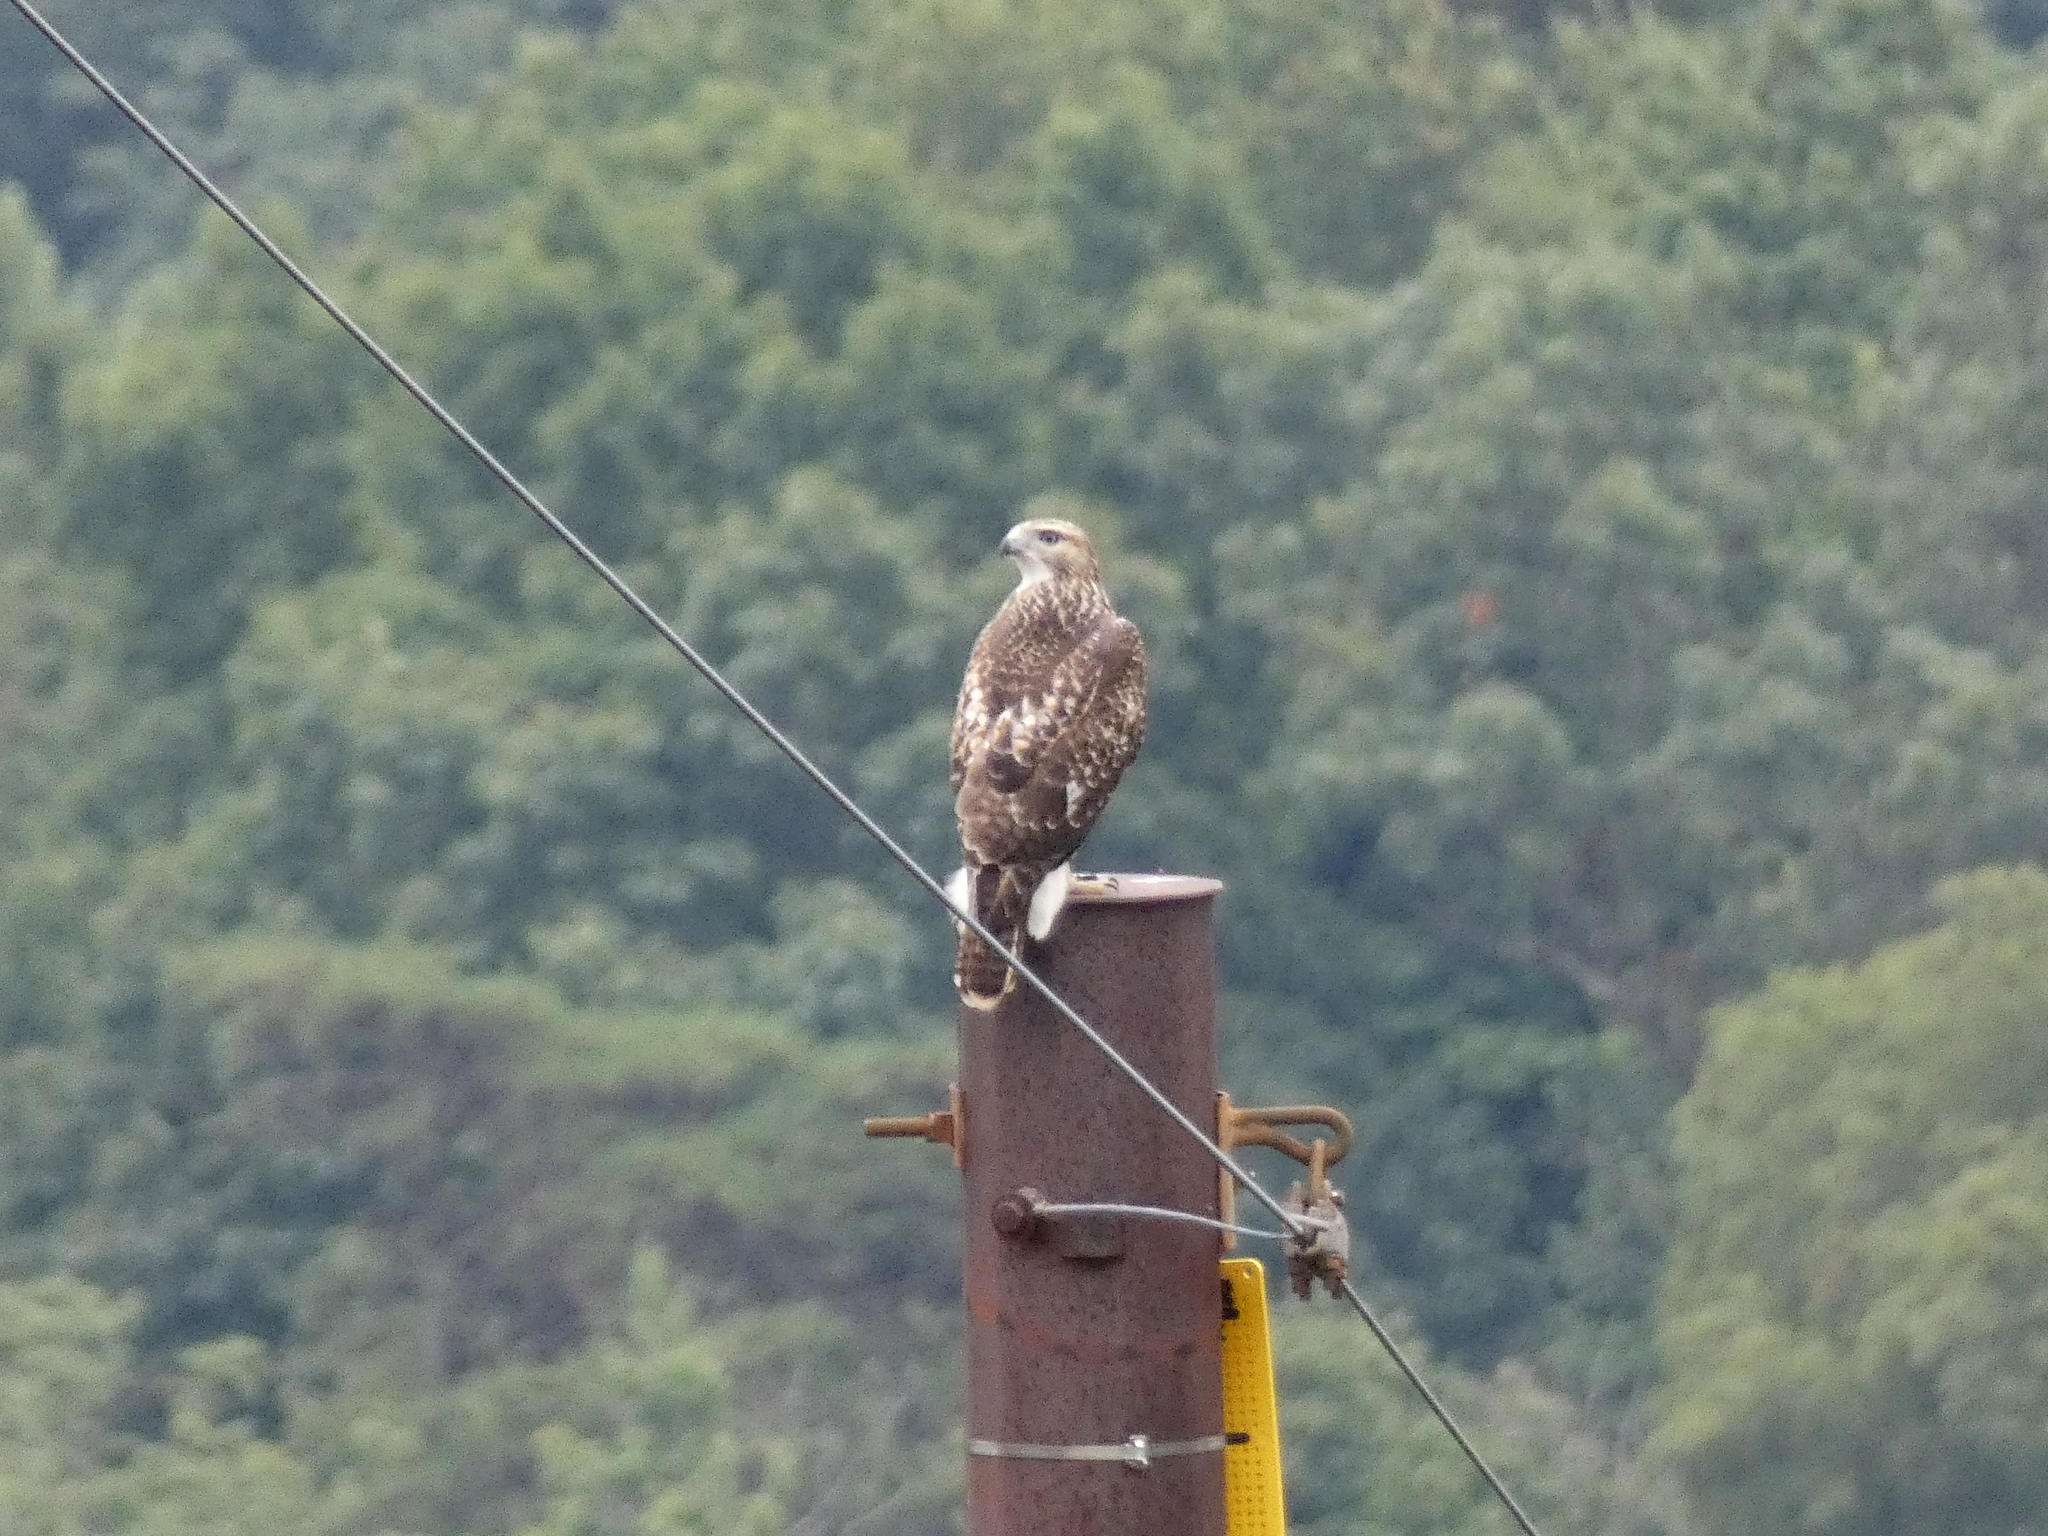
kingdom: Animalia
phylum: Chordata
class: Aves
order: Accipitriformes
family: Accipitridae
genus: Buteo
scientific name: Buteo jamaicensis
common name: Red-tailed hawk
